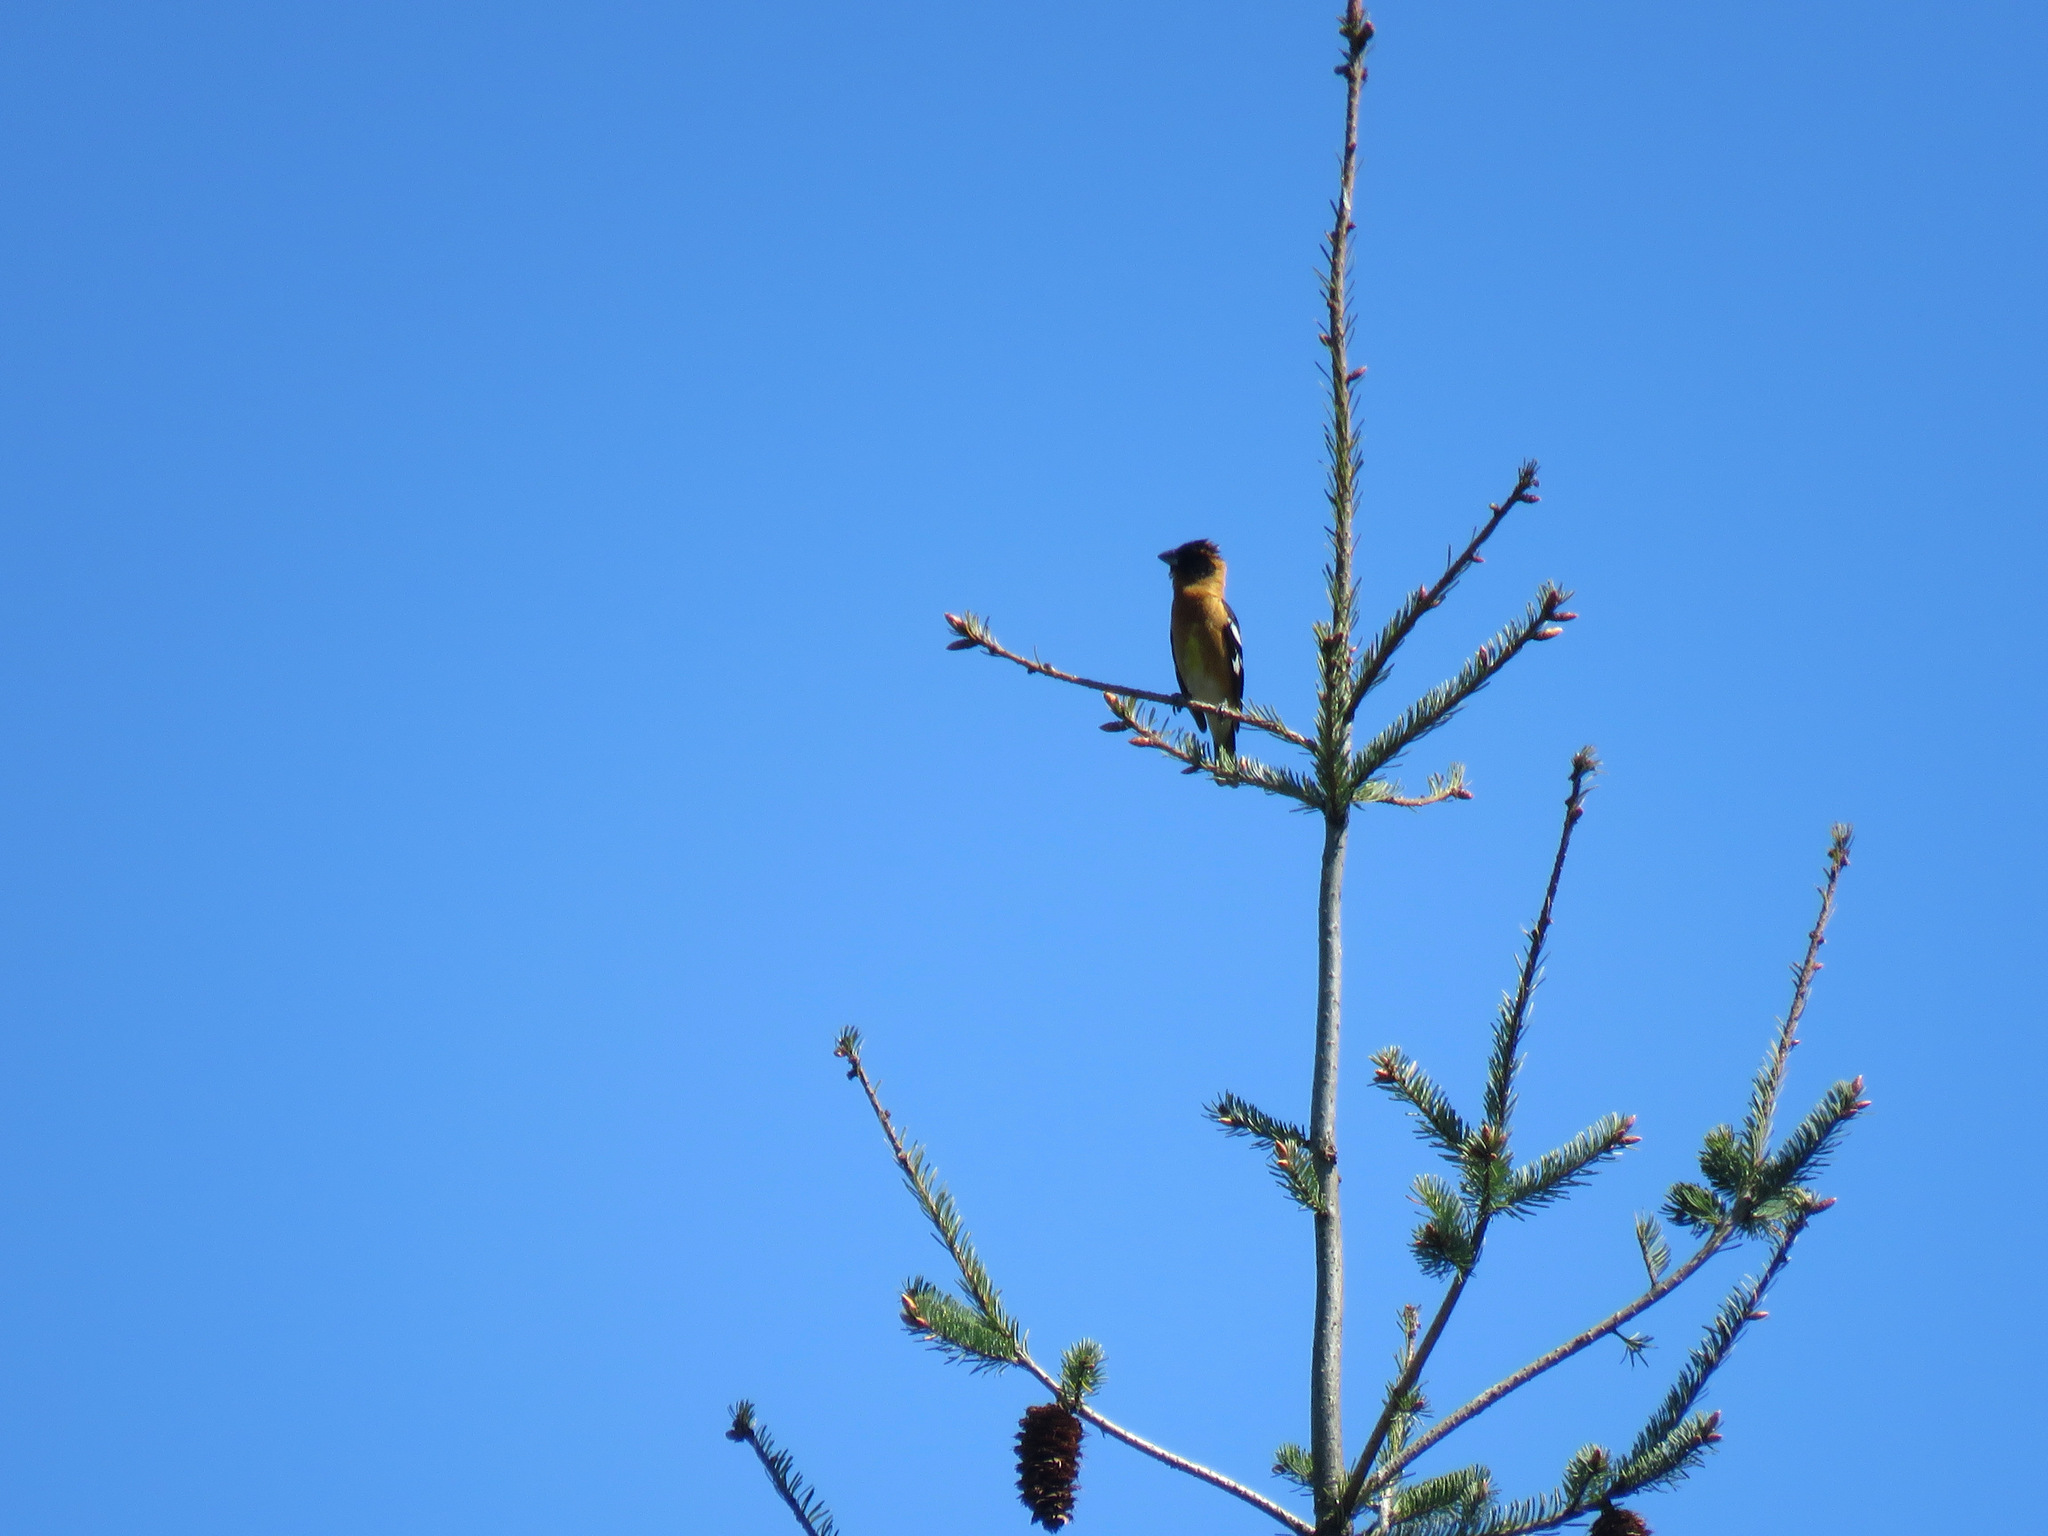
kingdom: Animalia
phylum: Chordata
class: Aves
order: Passeriformes
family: Cardinalidae
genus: Pheucticus
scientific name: Pheucticus melanocephalus
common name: Black-headed grosbeak
